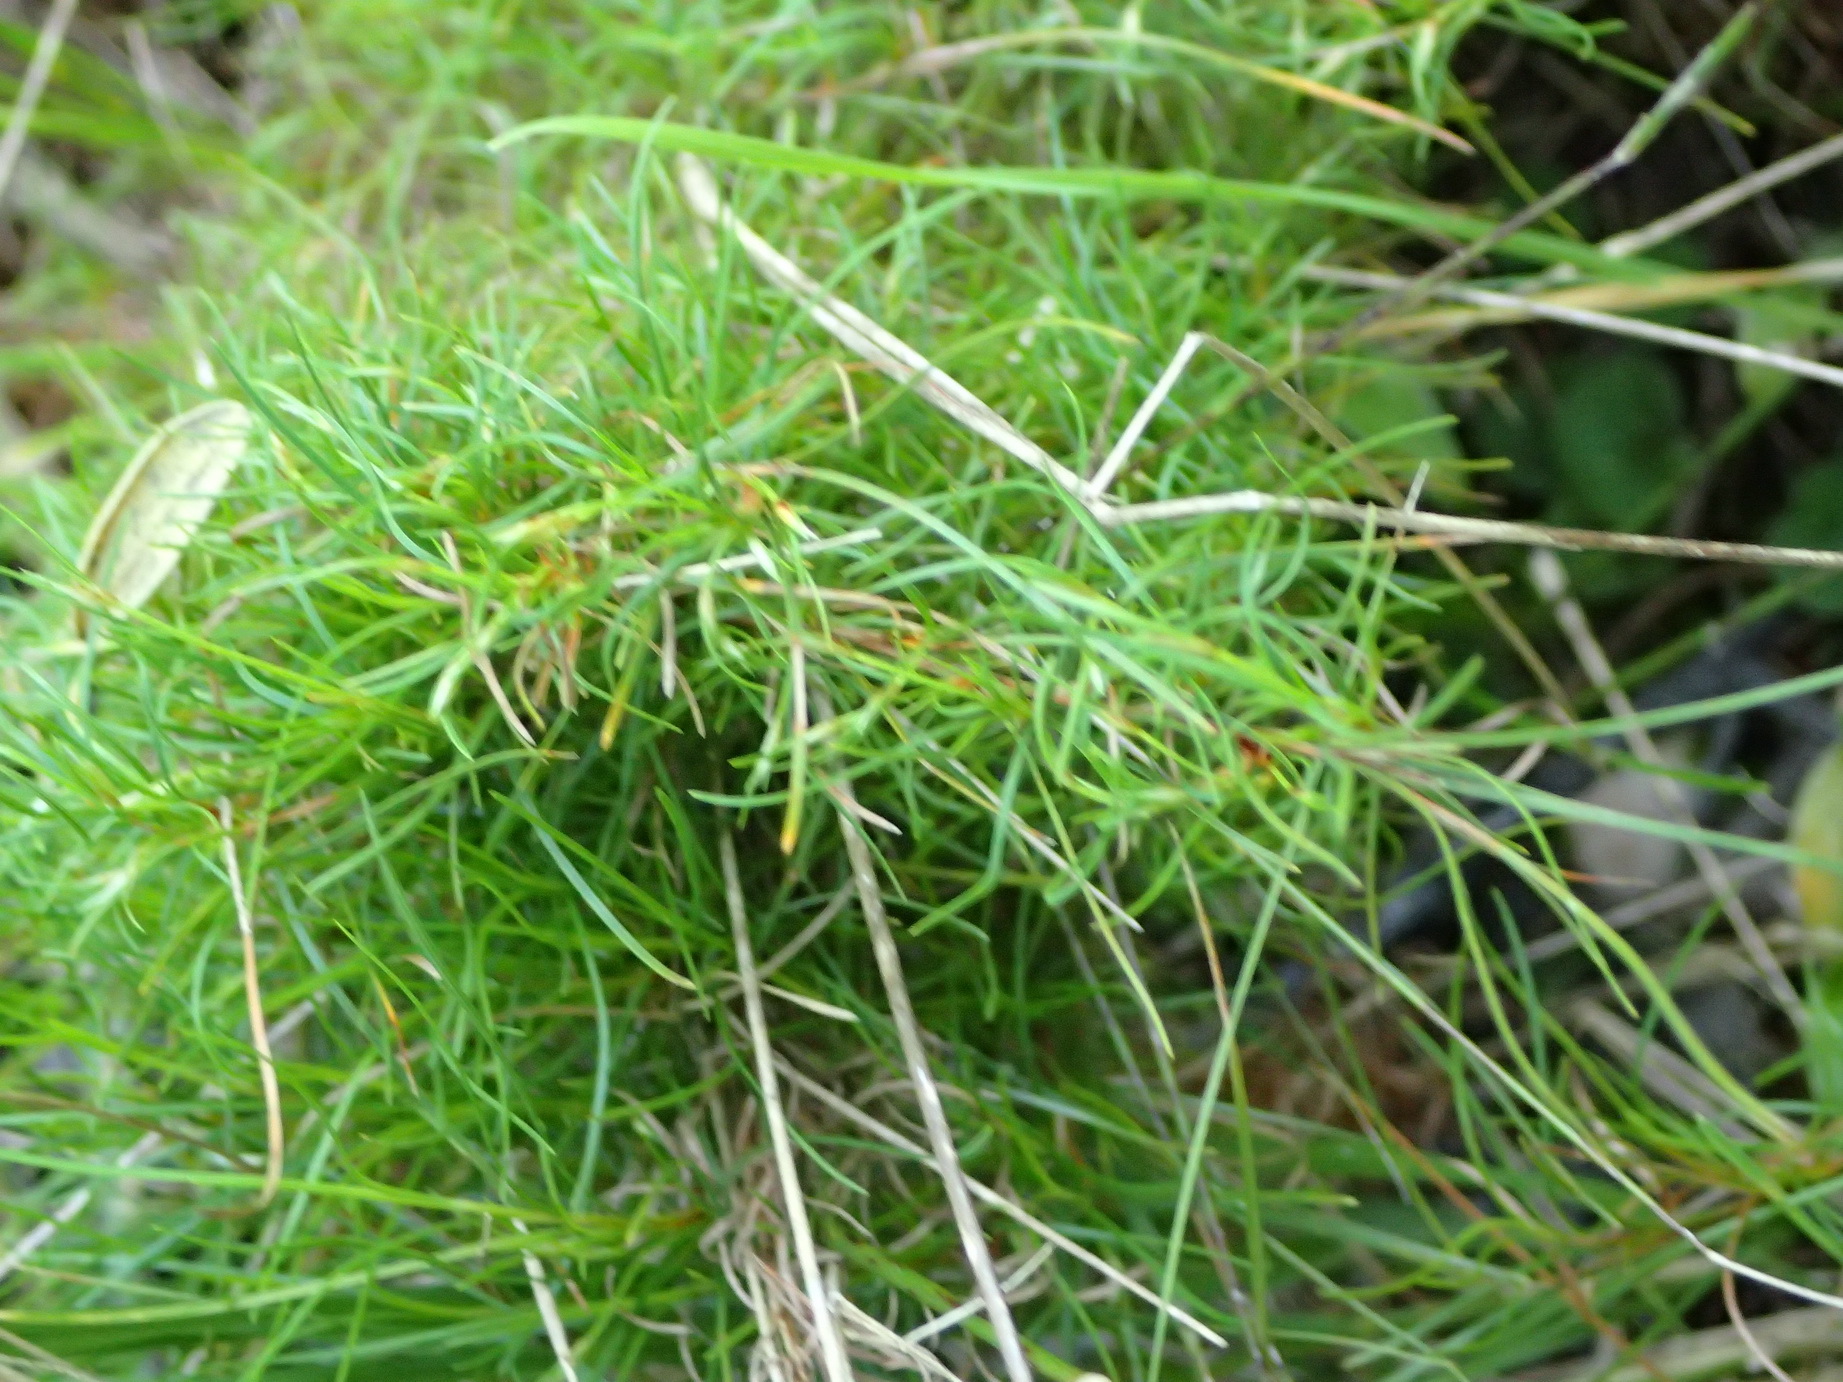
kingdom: Plantae
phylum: Tracheophyta
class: Liliopsida
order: Poales
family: Cyperaceae
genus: Ficinia
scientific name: Ficinia ramosissima
